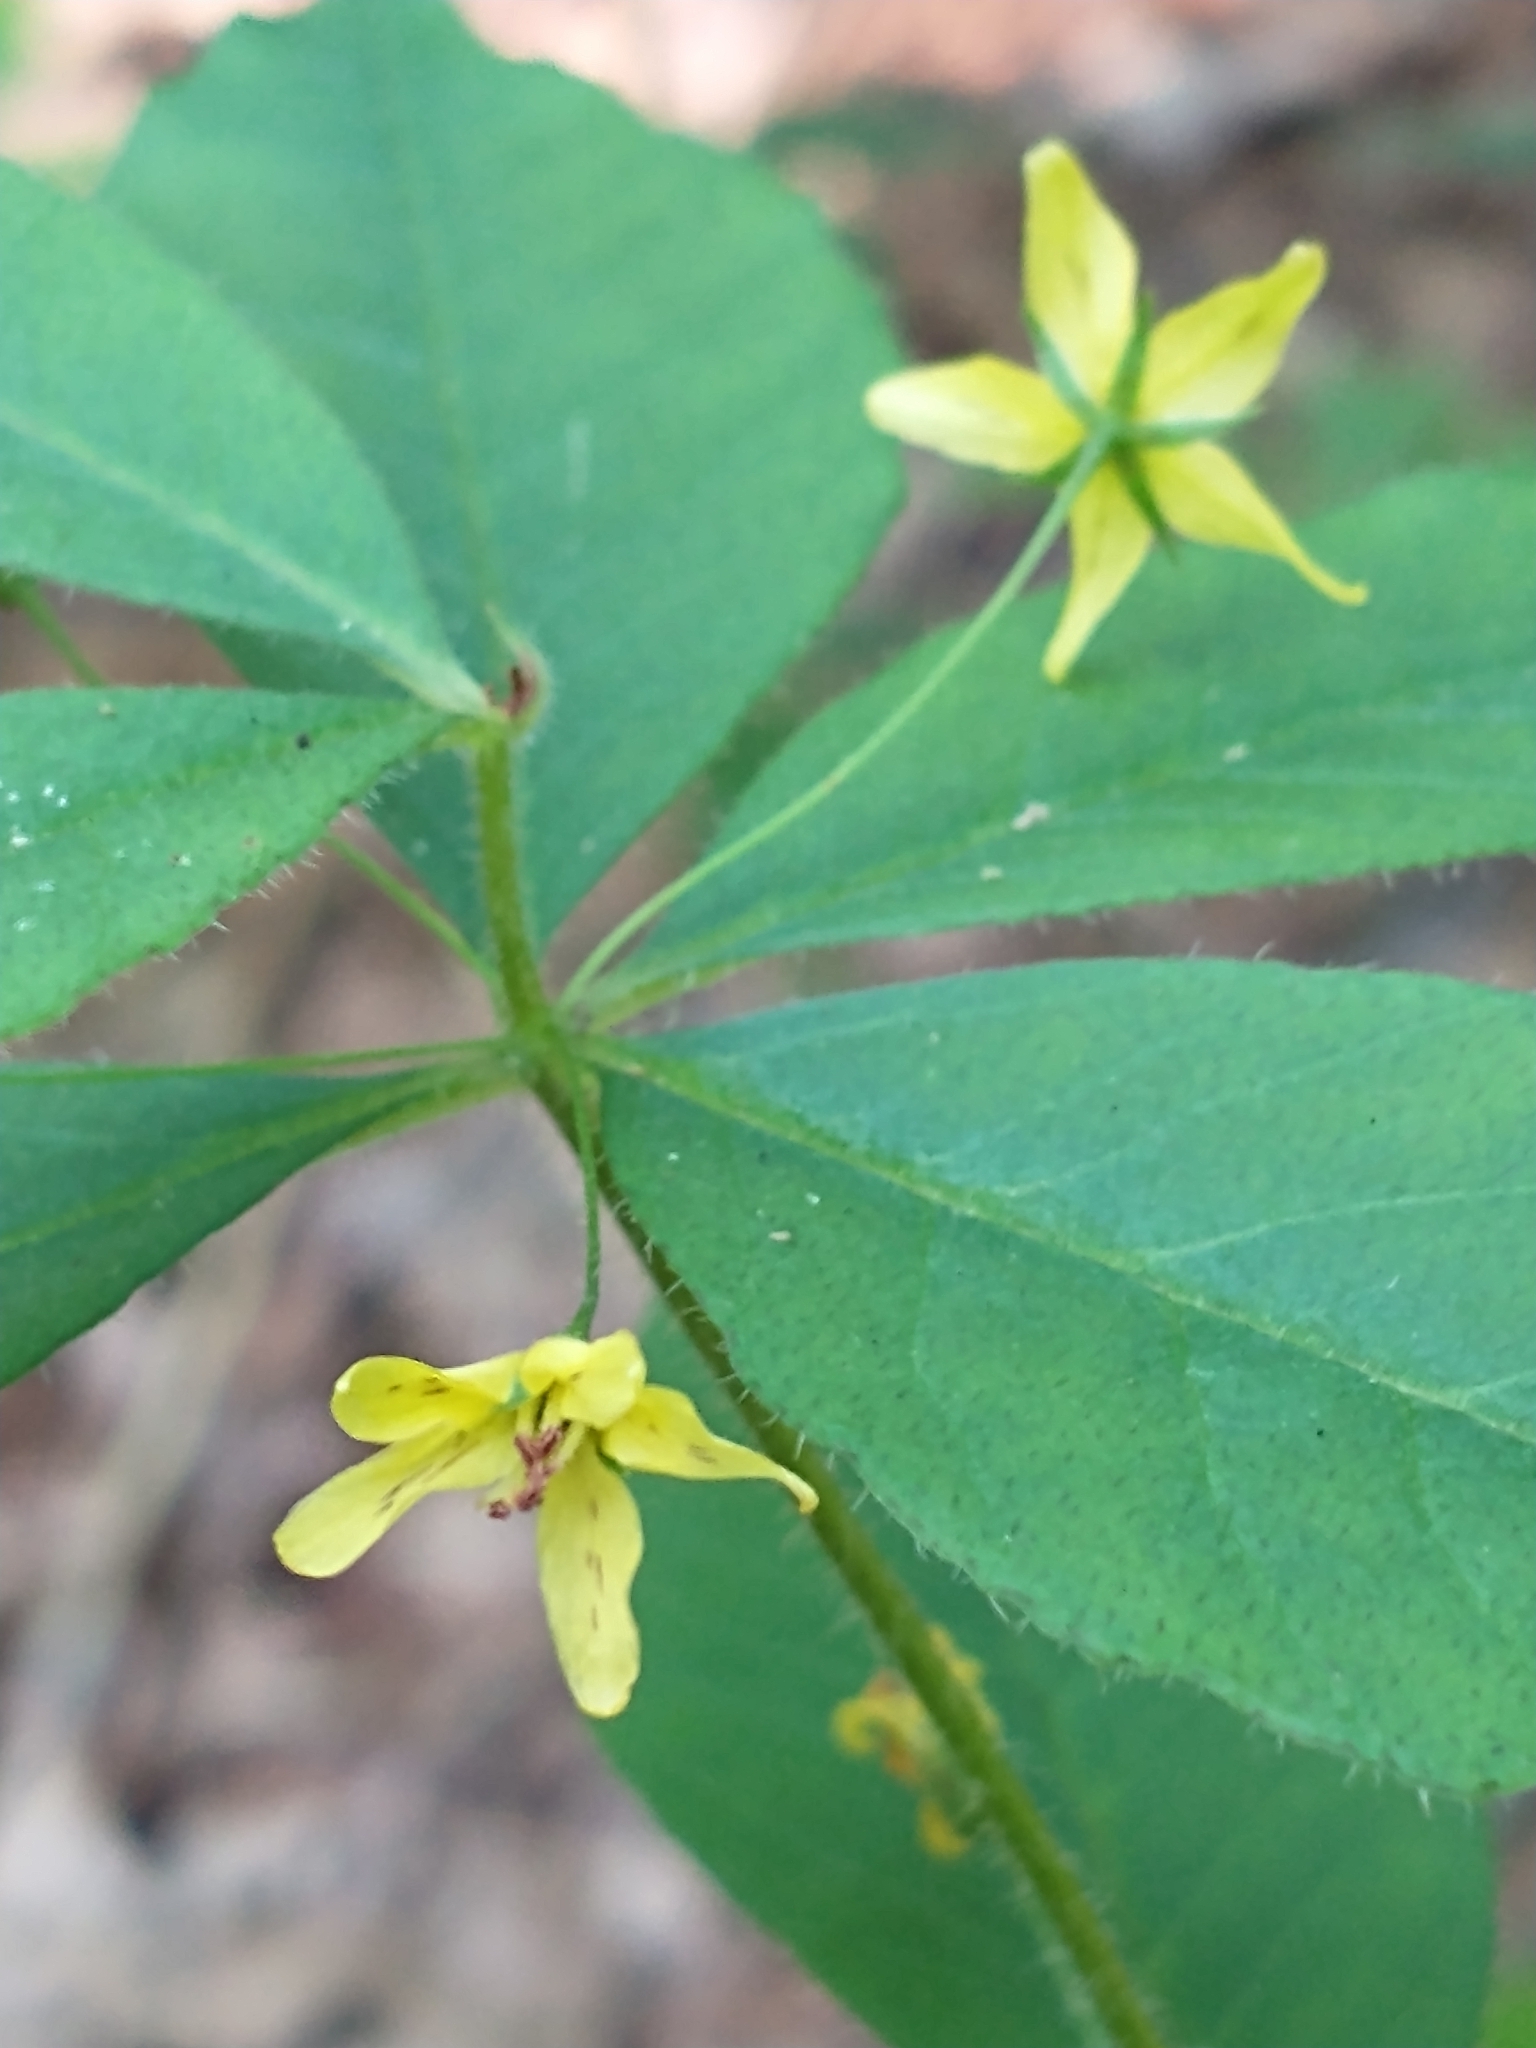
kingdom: Plantae
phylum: Tracheophyta
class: Magnoliopsida
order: Ericales
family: Primulaceae
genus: Lysimachia
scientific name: Lysimachia quadrifolia
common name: Whorled loosestrife
